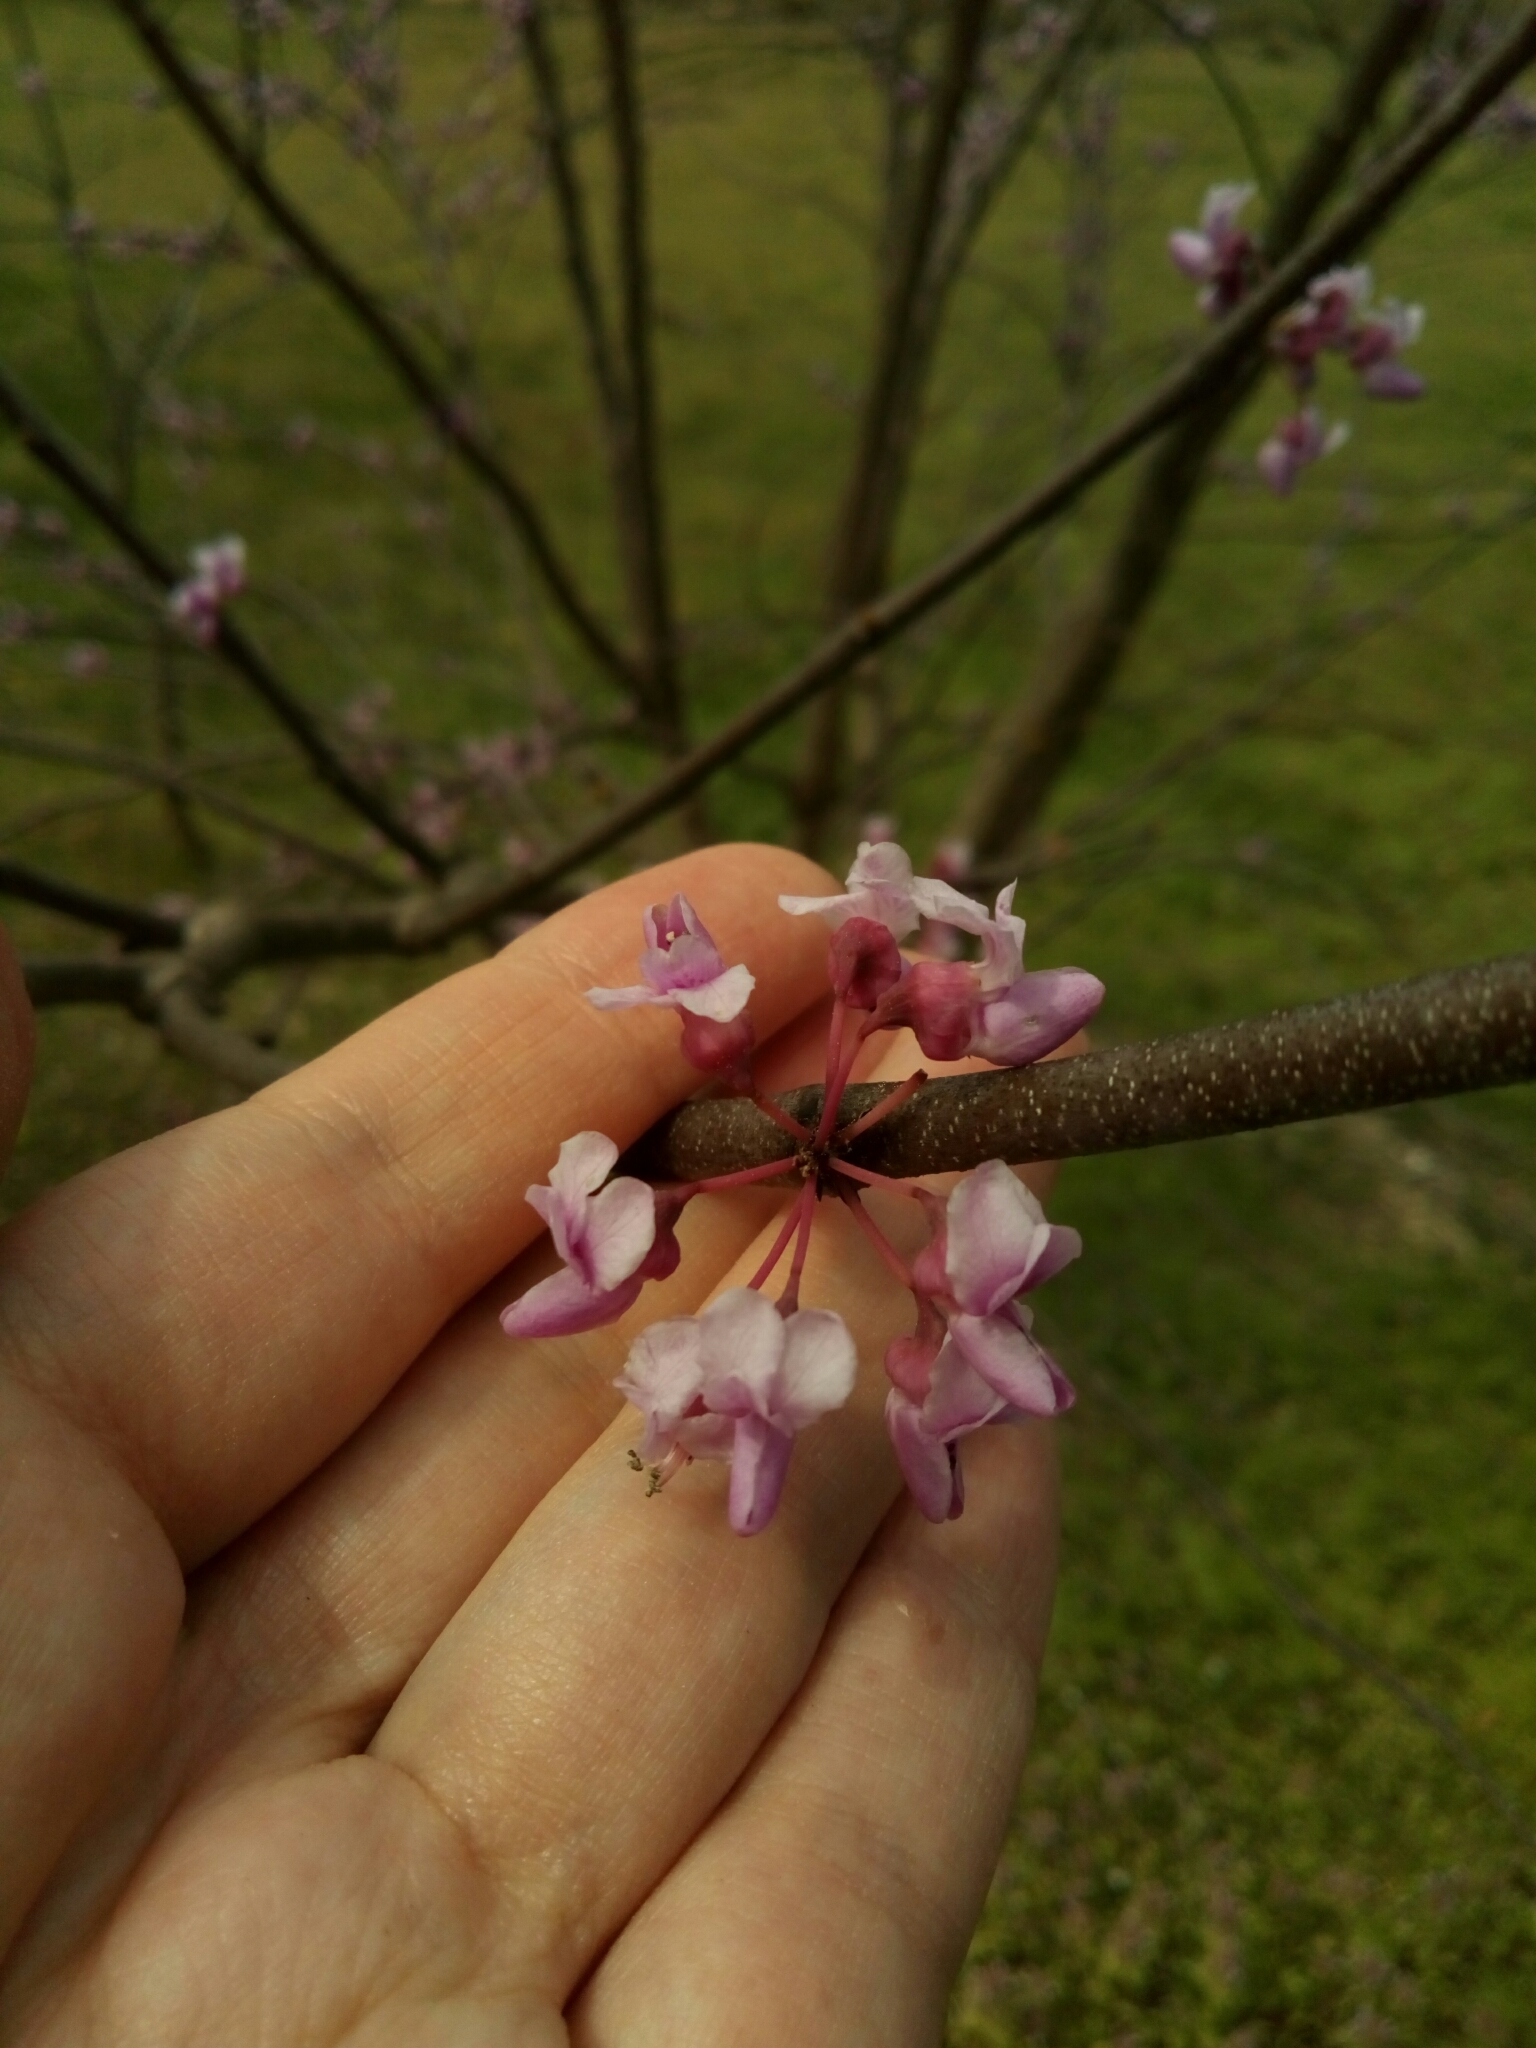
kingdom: Plantae
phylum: Tracheophyta
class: Magnoliopsida
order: Fabales
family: Fabaceae
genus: Cercis
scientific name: Cercis canadensis
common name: Eastern redbud
